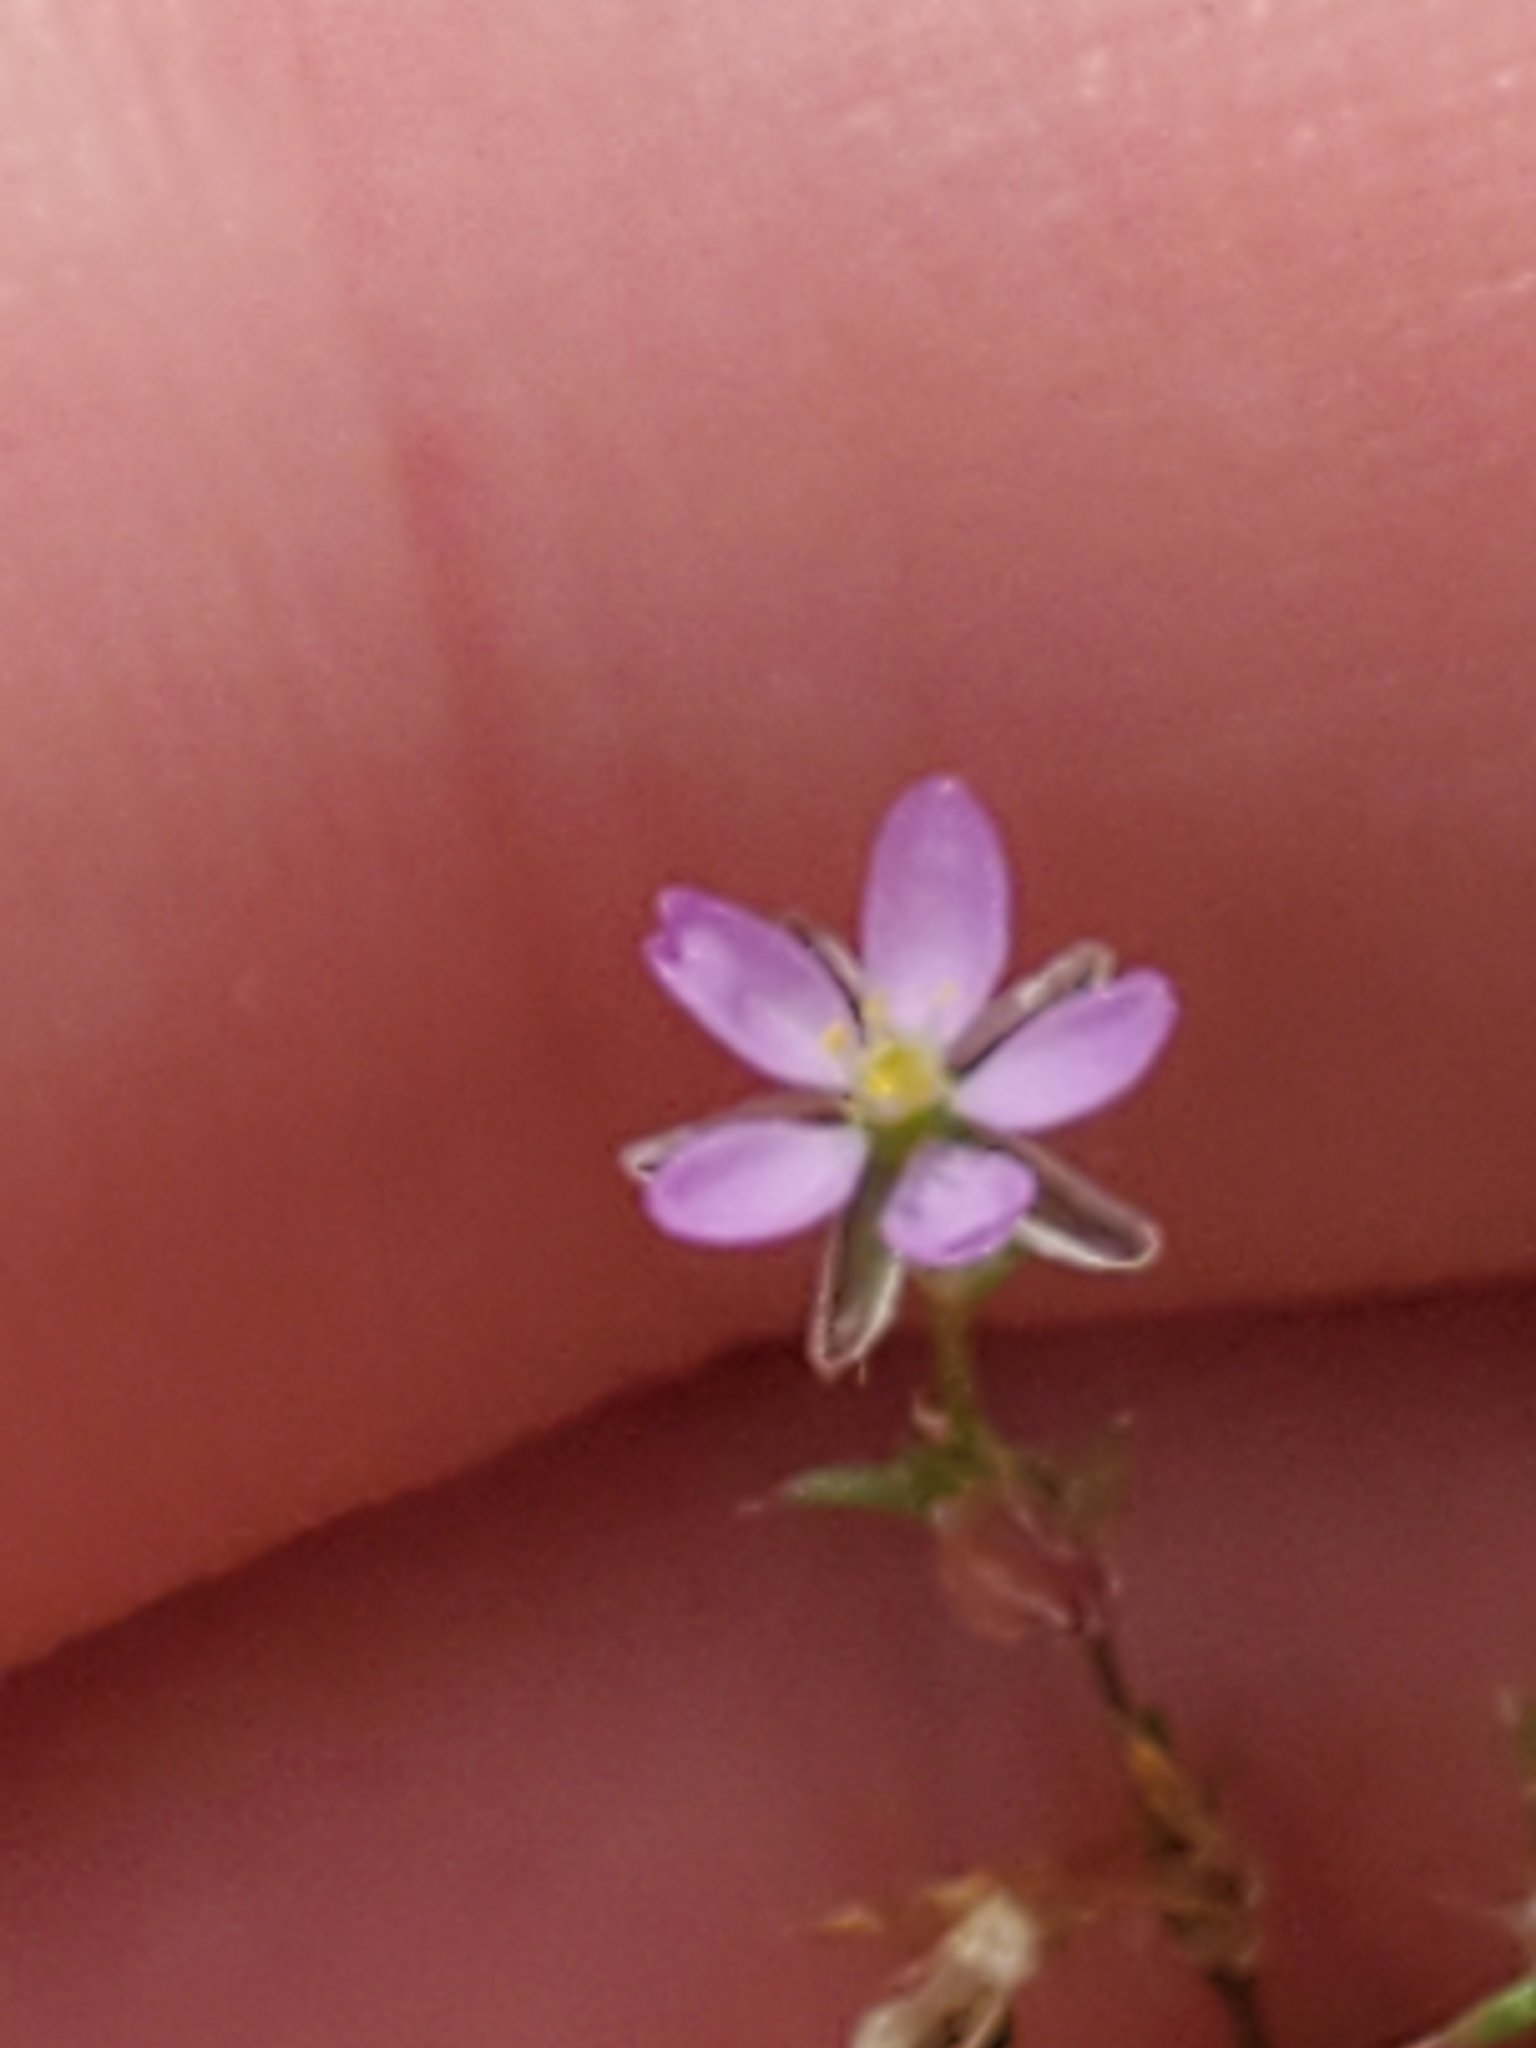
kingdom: Plantae
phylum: Tracheophyta
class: Magnoliopsida
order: Caryophyllales
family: Caryophyllaceae
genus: Spergularia
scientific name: Spergularia rubra
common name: Red sand-spurrey
